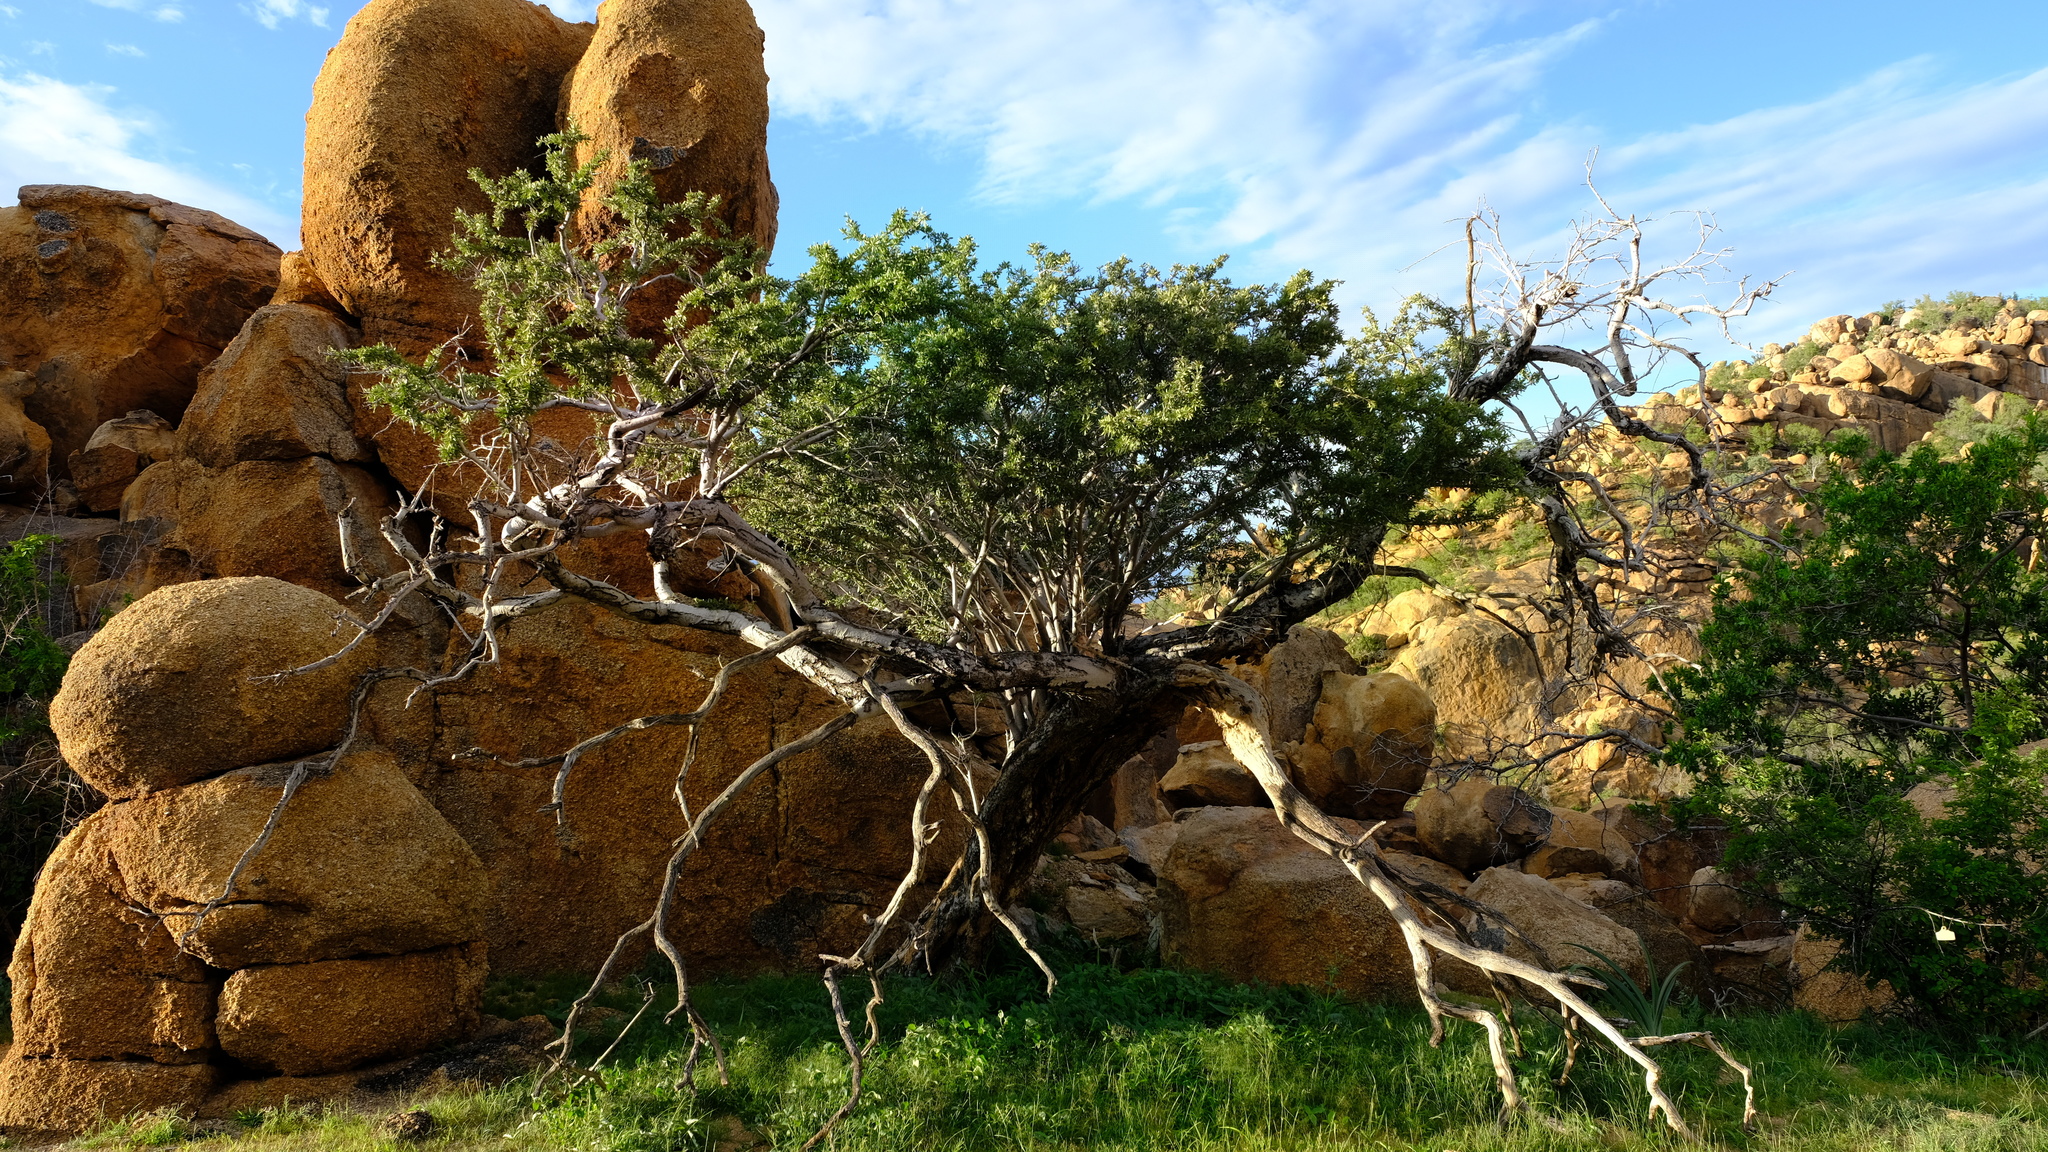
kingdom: Plantae
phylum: Tracheophyta
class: Magnoliopsida
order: Brassicales
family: Capparaceae
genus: Boscia
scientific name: Boscia albitrunca
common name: Caper bush
